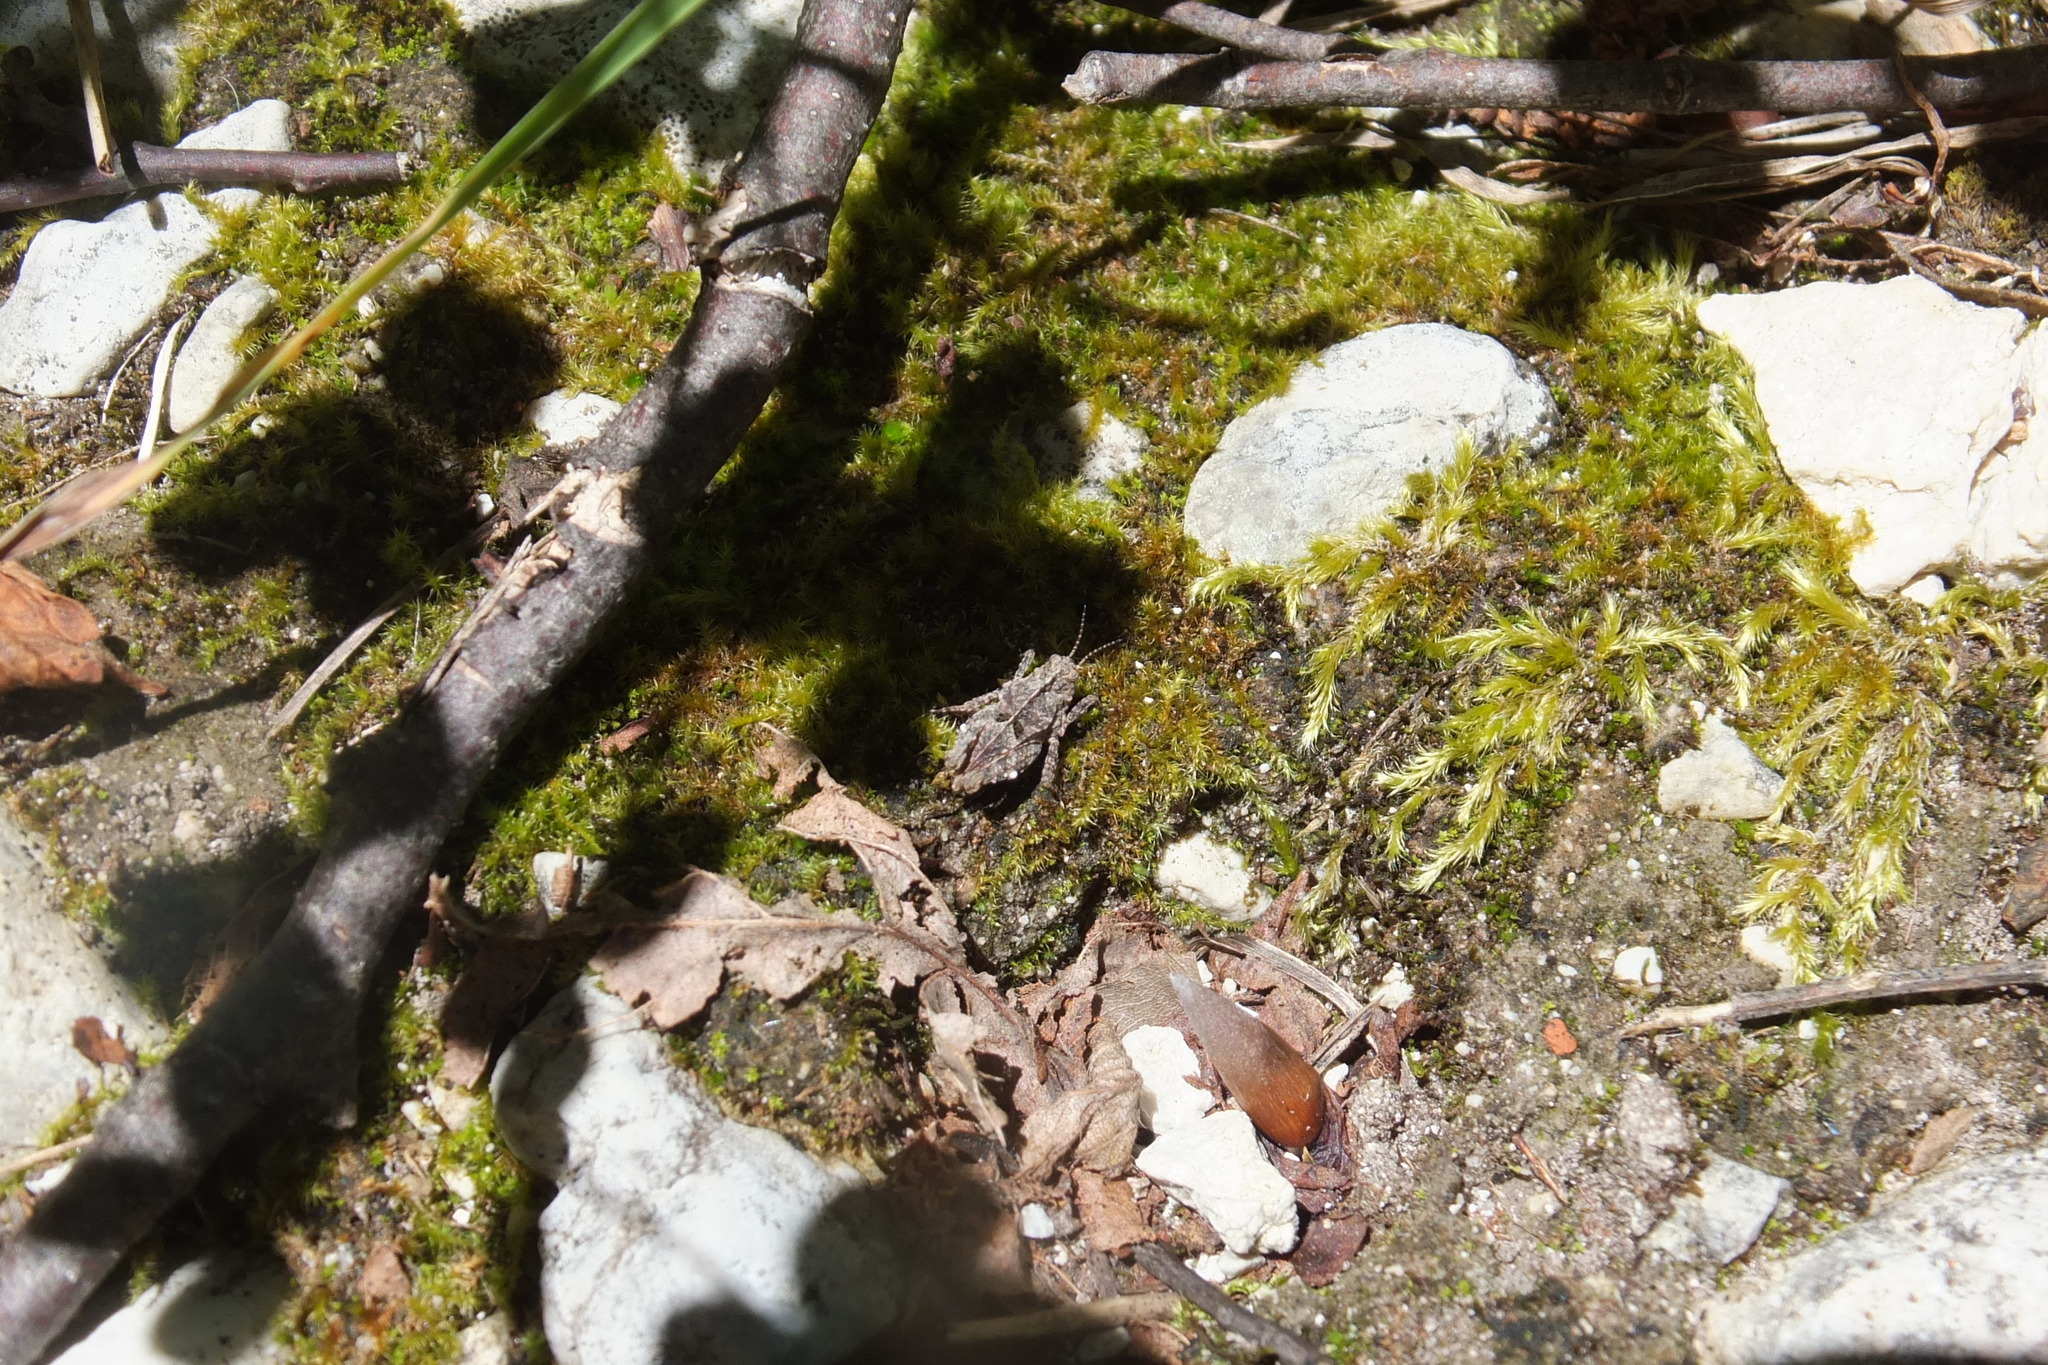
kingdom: Animalia
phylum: Arthropoda
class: Insecta
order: Orthoptera
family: Tetrigidae
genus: Tetrix
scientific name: Tetrix depressa
